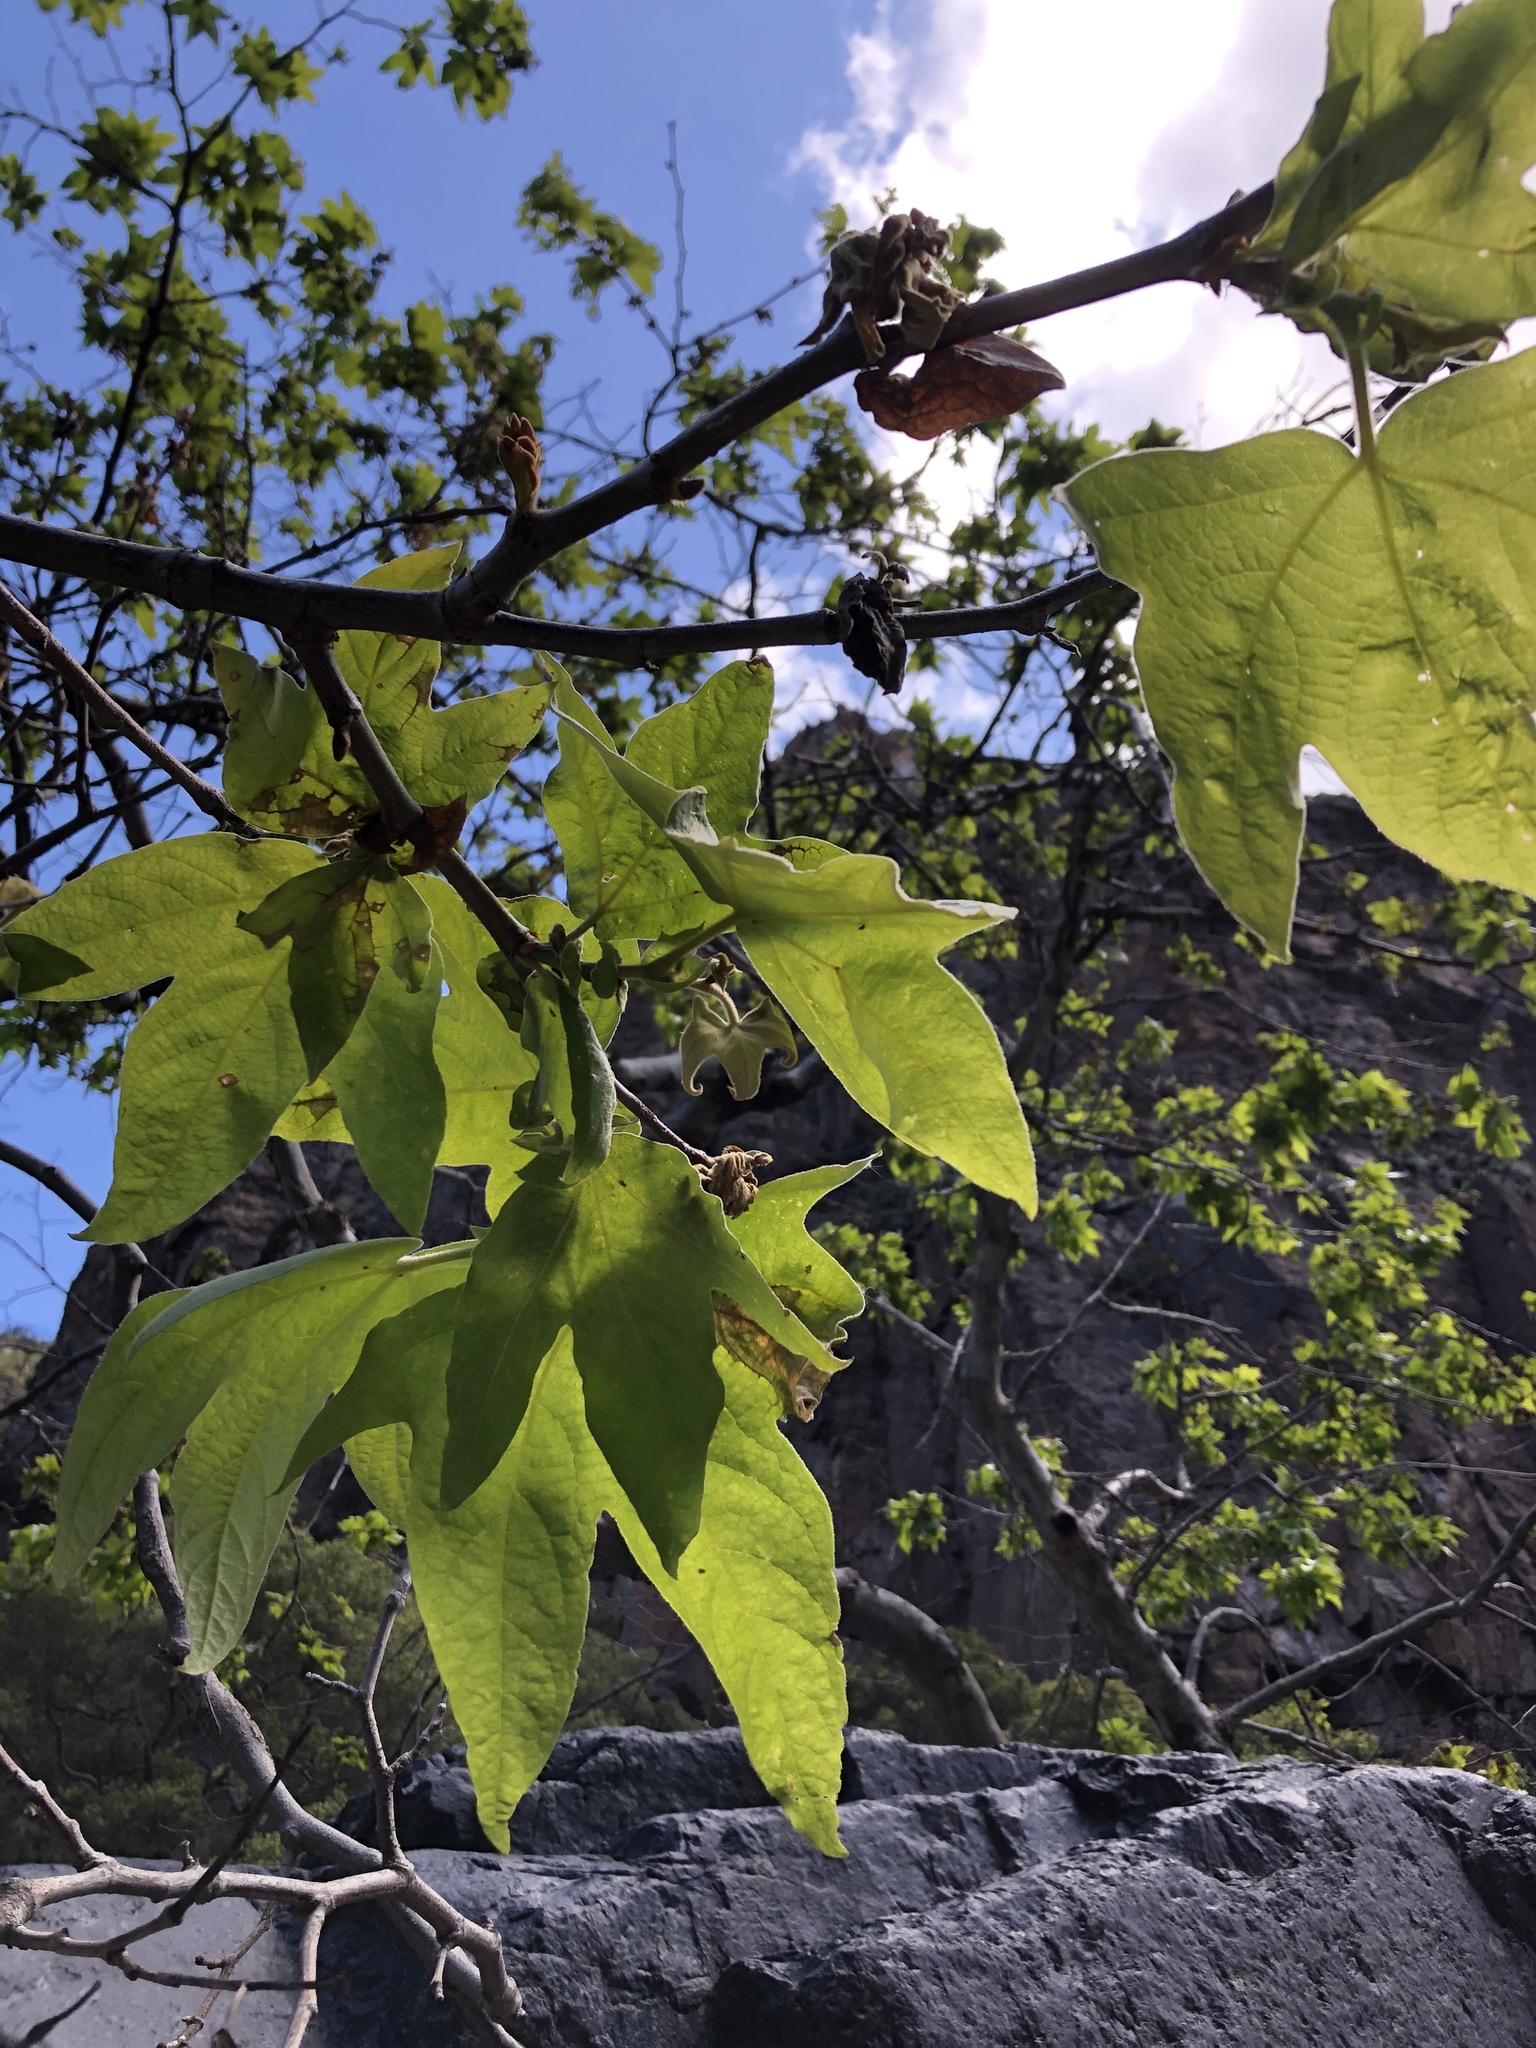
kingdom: Plantae
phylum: Tracheophyta
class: Magnoliopsida
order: Proteales
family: Platanaceae
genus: Platanus
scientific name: Platanus racemosa
